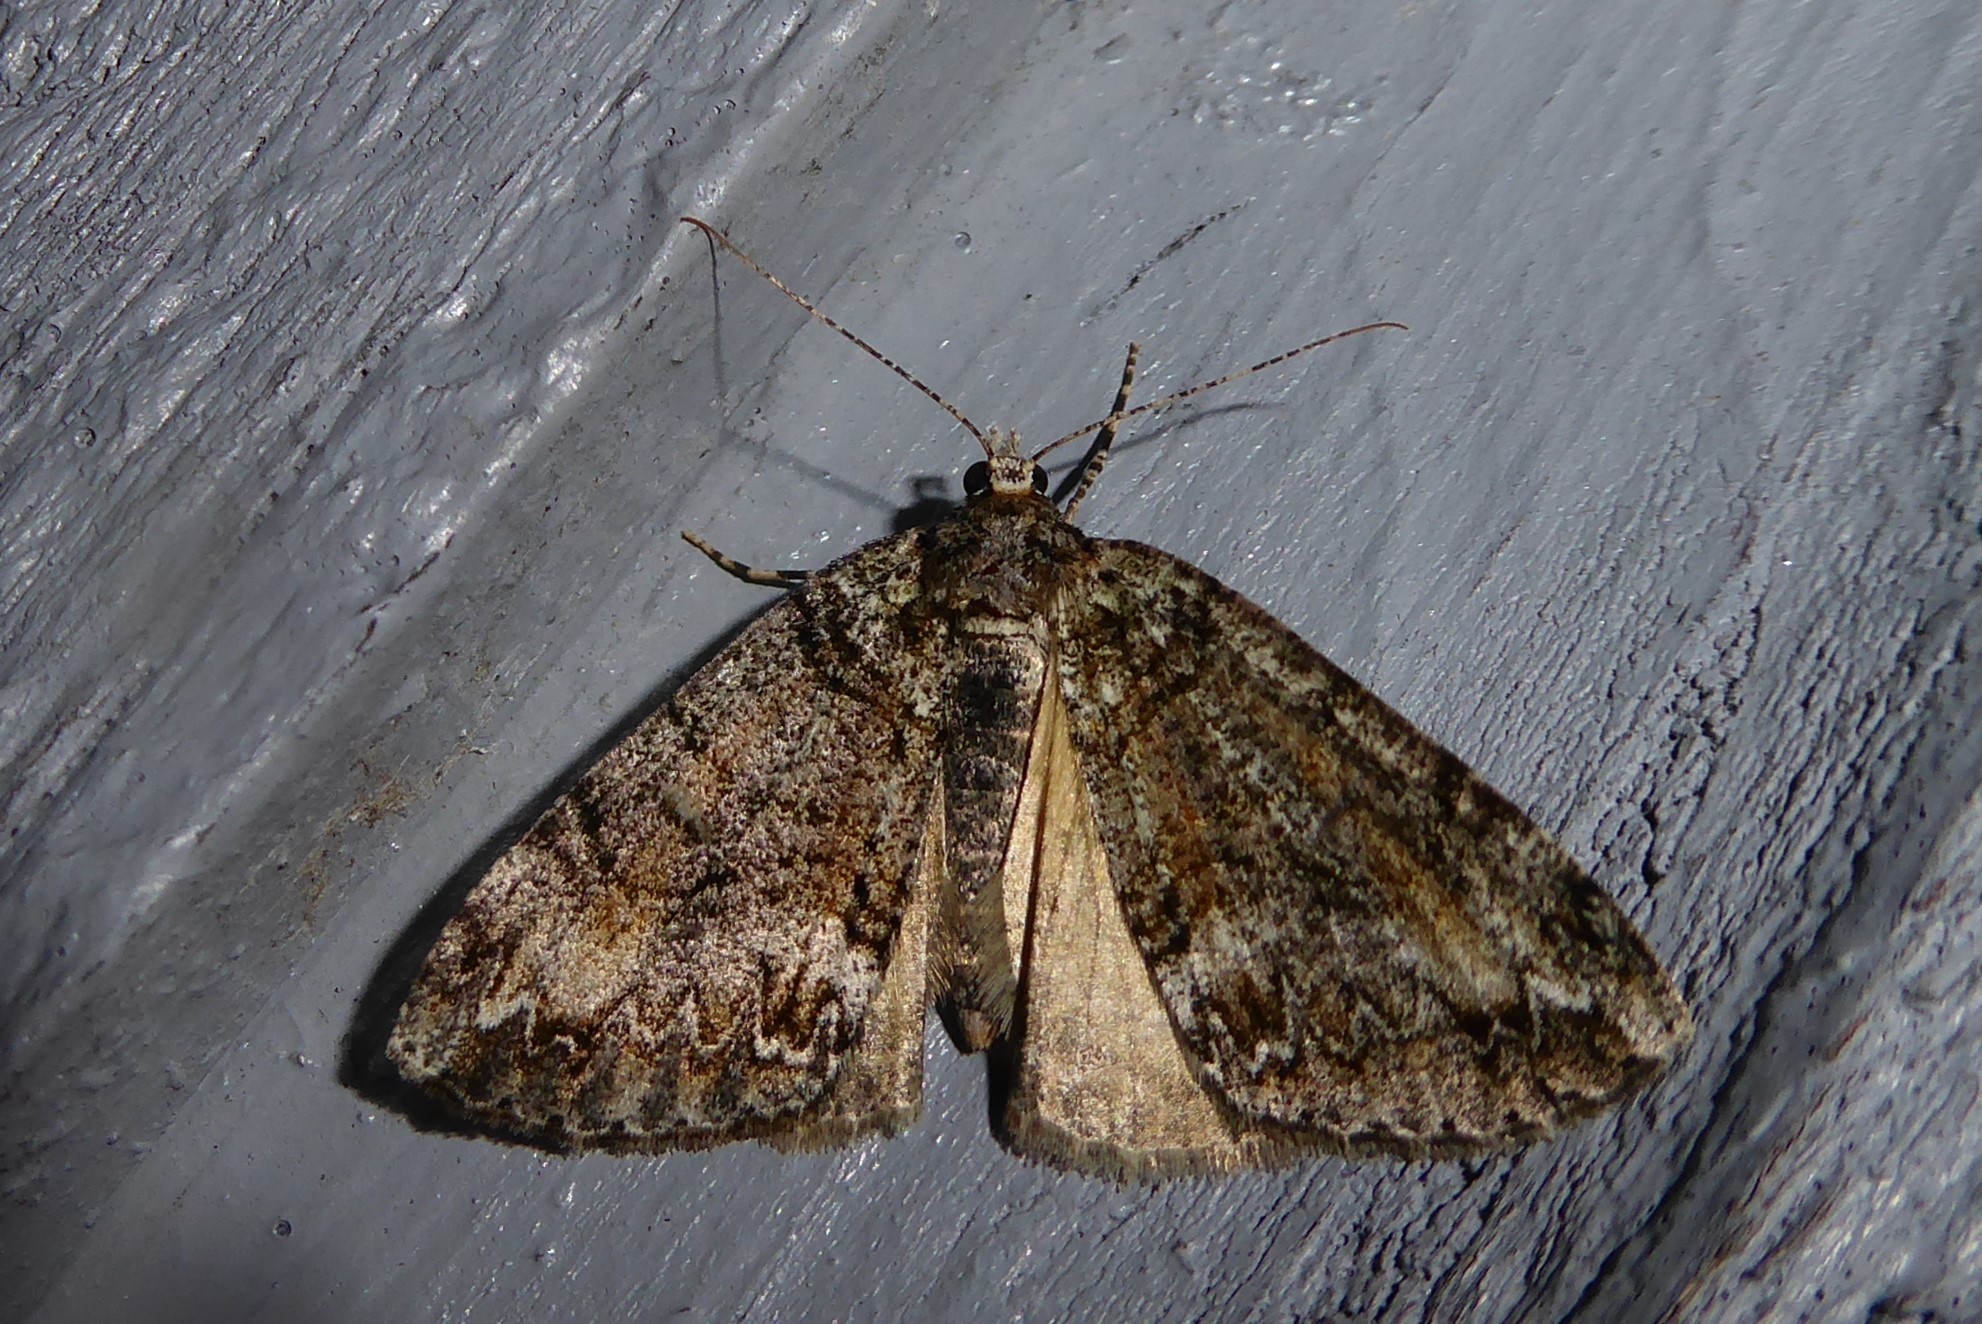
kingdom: Animalia
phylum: Arthropoda
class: Insecta
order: Lepidoptera
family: Geometridae
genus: Pseudocoremia
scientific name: Pseudocoremia suavis
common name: Common forest looper
